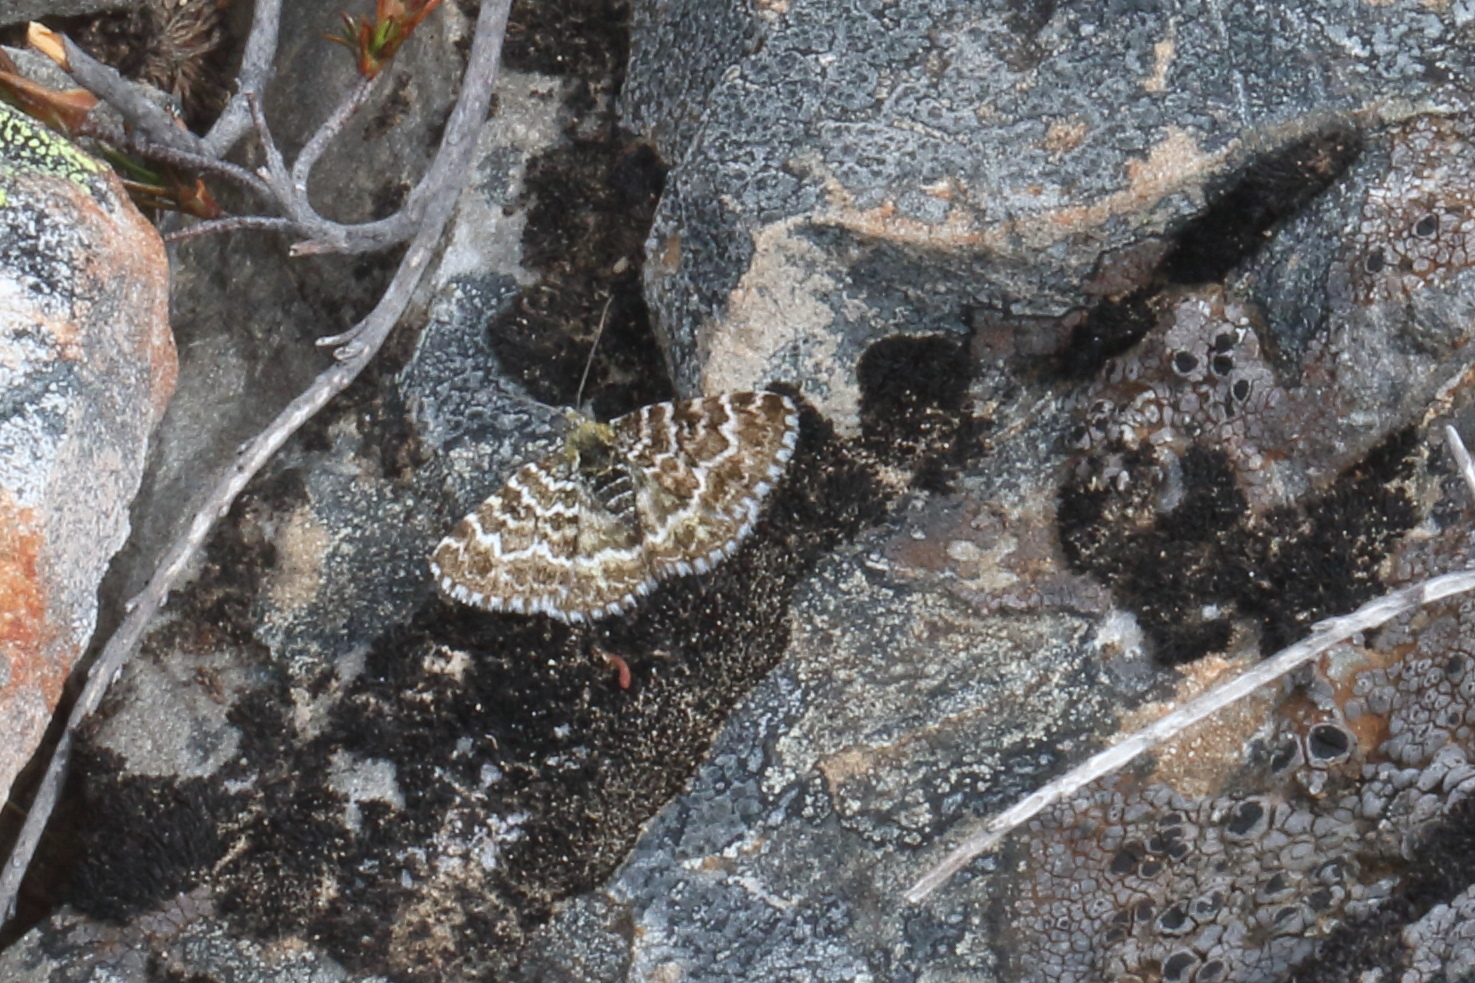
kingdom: Animalia
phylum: Arthropoda
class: Insecta
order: Lepidoptera
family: Geometridae
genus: Notoreas
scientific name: Notoreas ischnocyma
